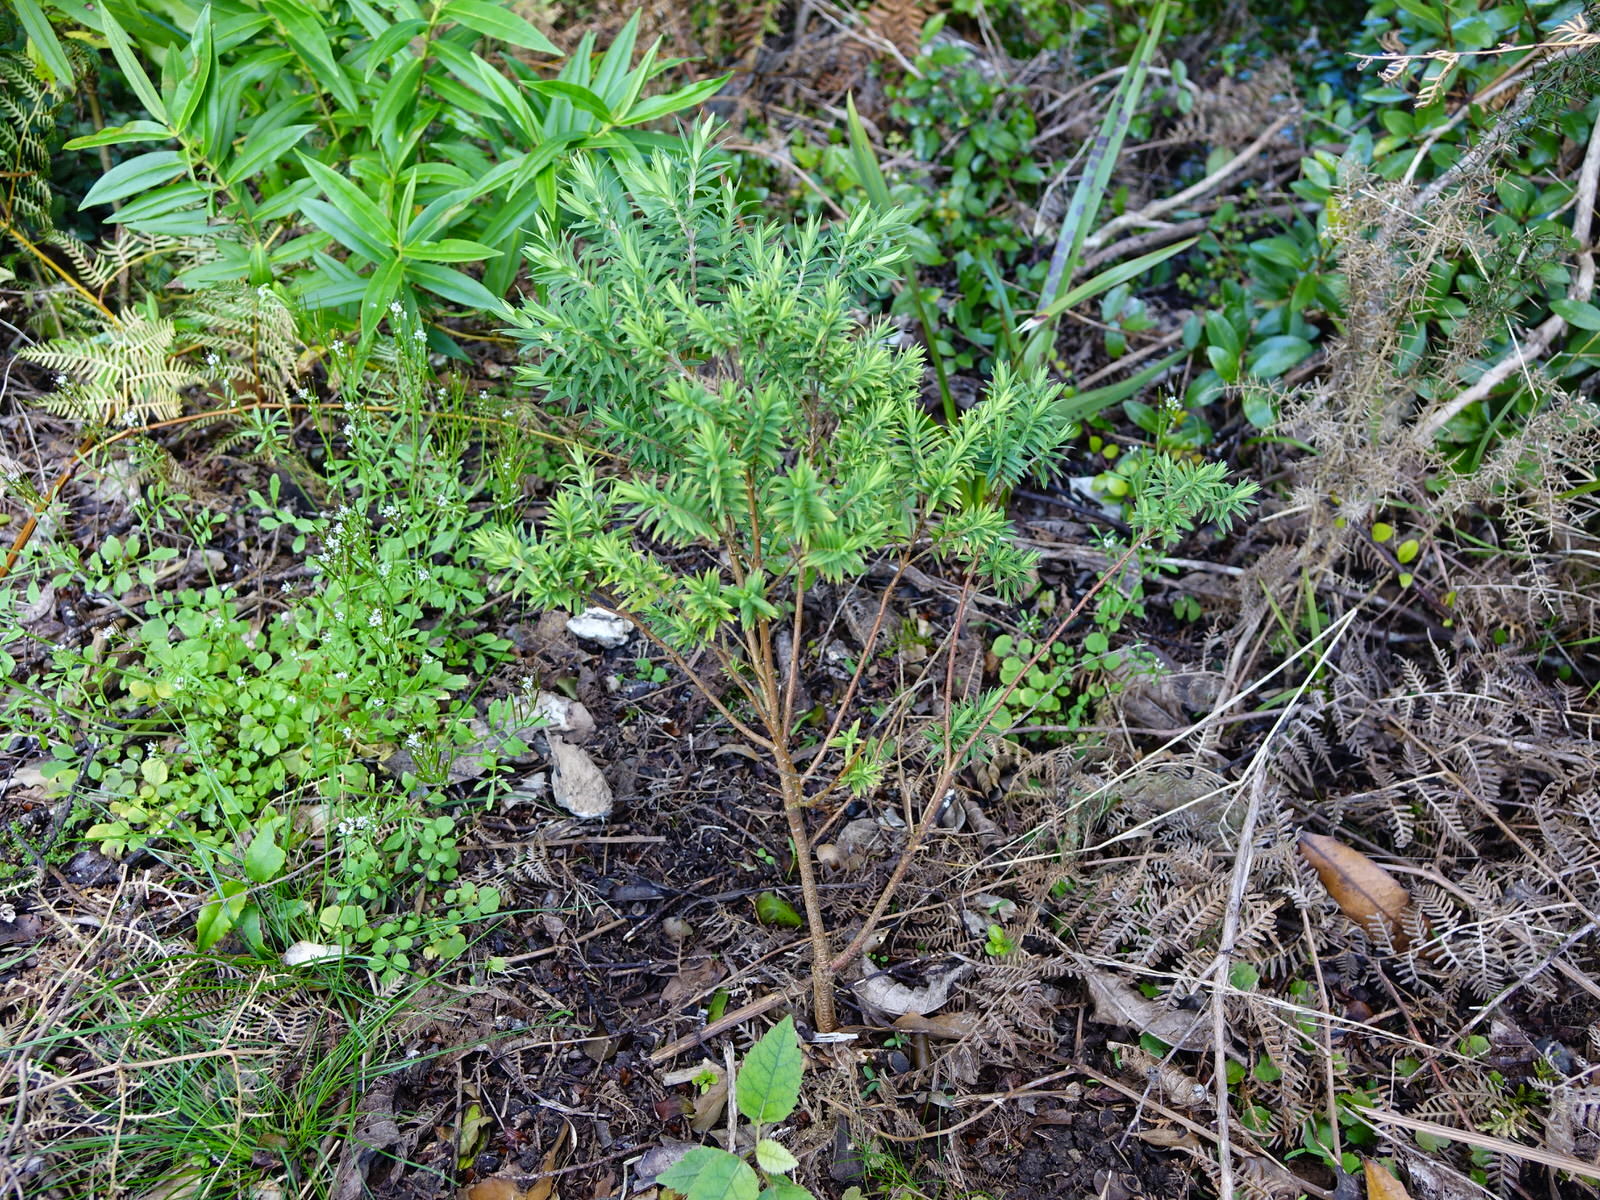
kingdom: Plantae
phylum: Tracheophyta
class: Magnoliopsida
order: Malvales
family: Thymelaeaceae
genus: Pimelea
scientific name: Pimelea tomentosa
